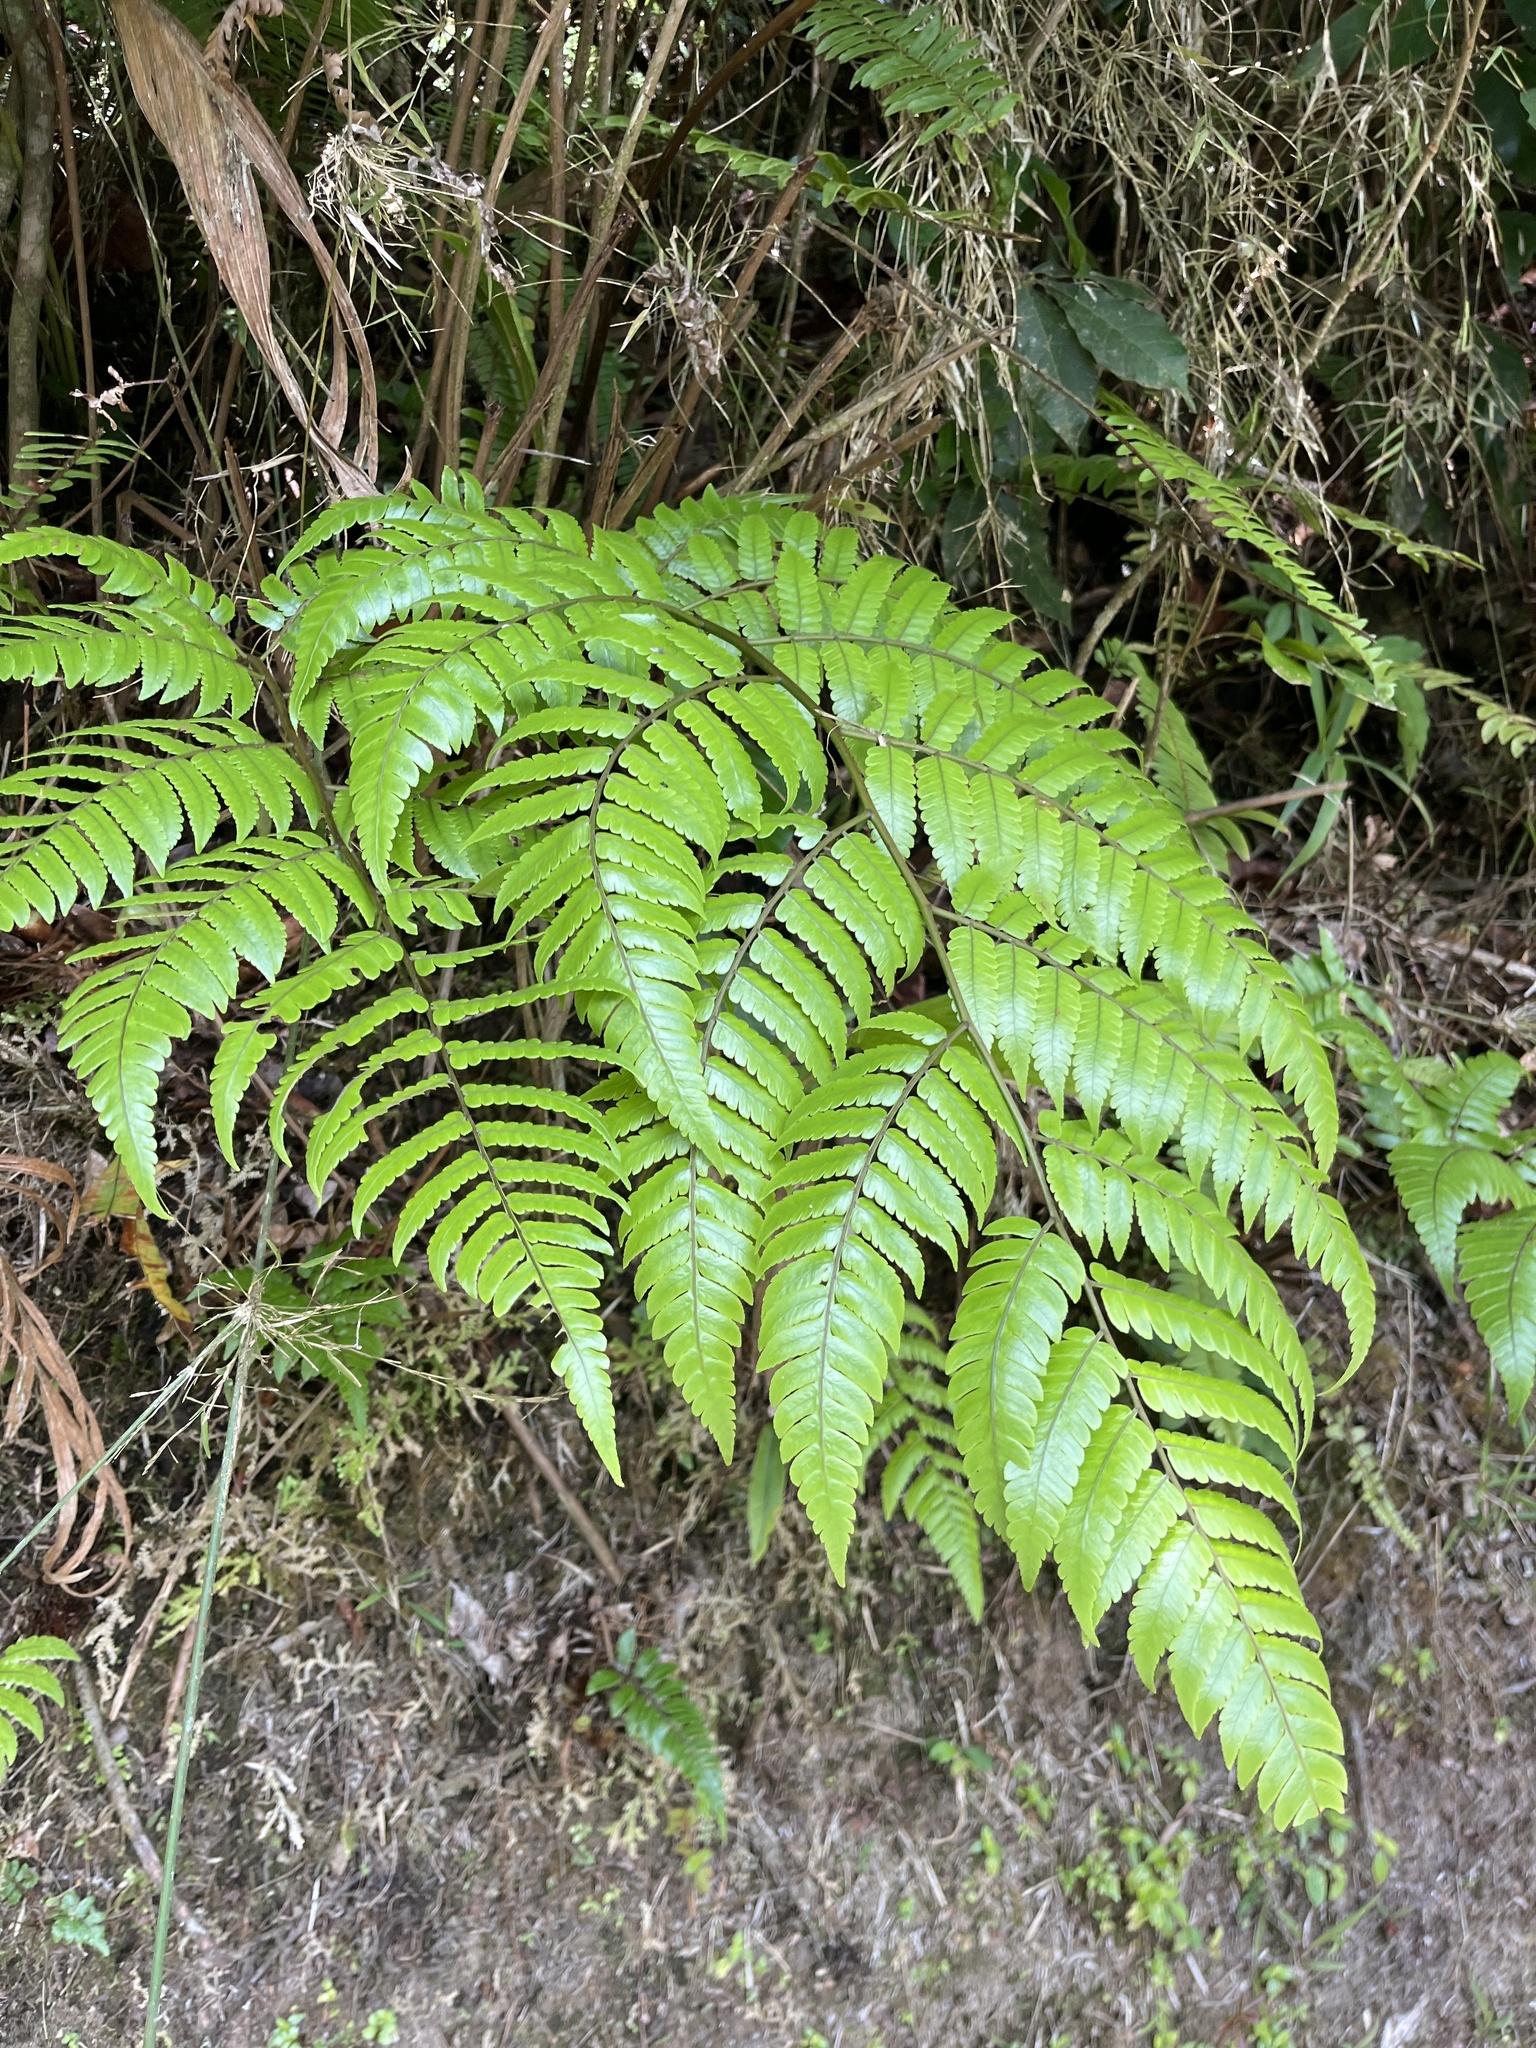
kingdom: Plantae
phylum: Tracheophyta
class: Polypodiopsida
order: Cyatheales
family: Cyatheaceae
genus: Cyathea
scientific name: Cyathea borinquena
